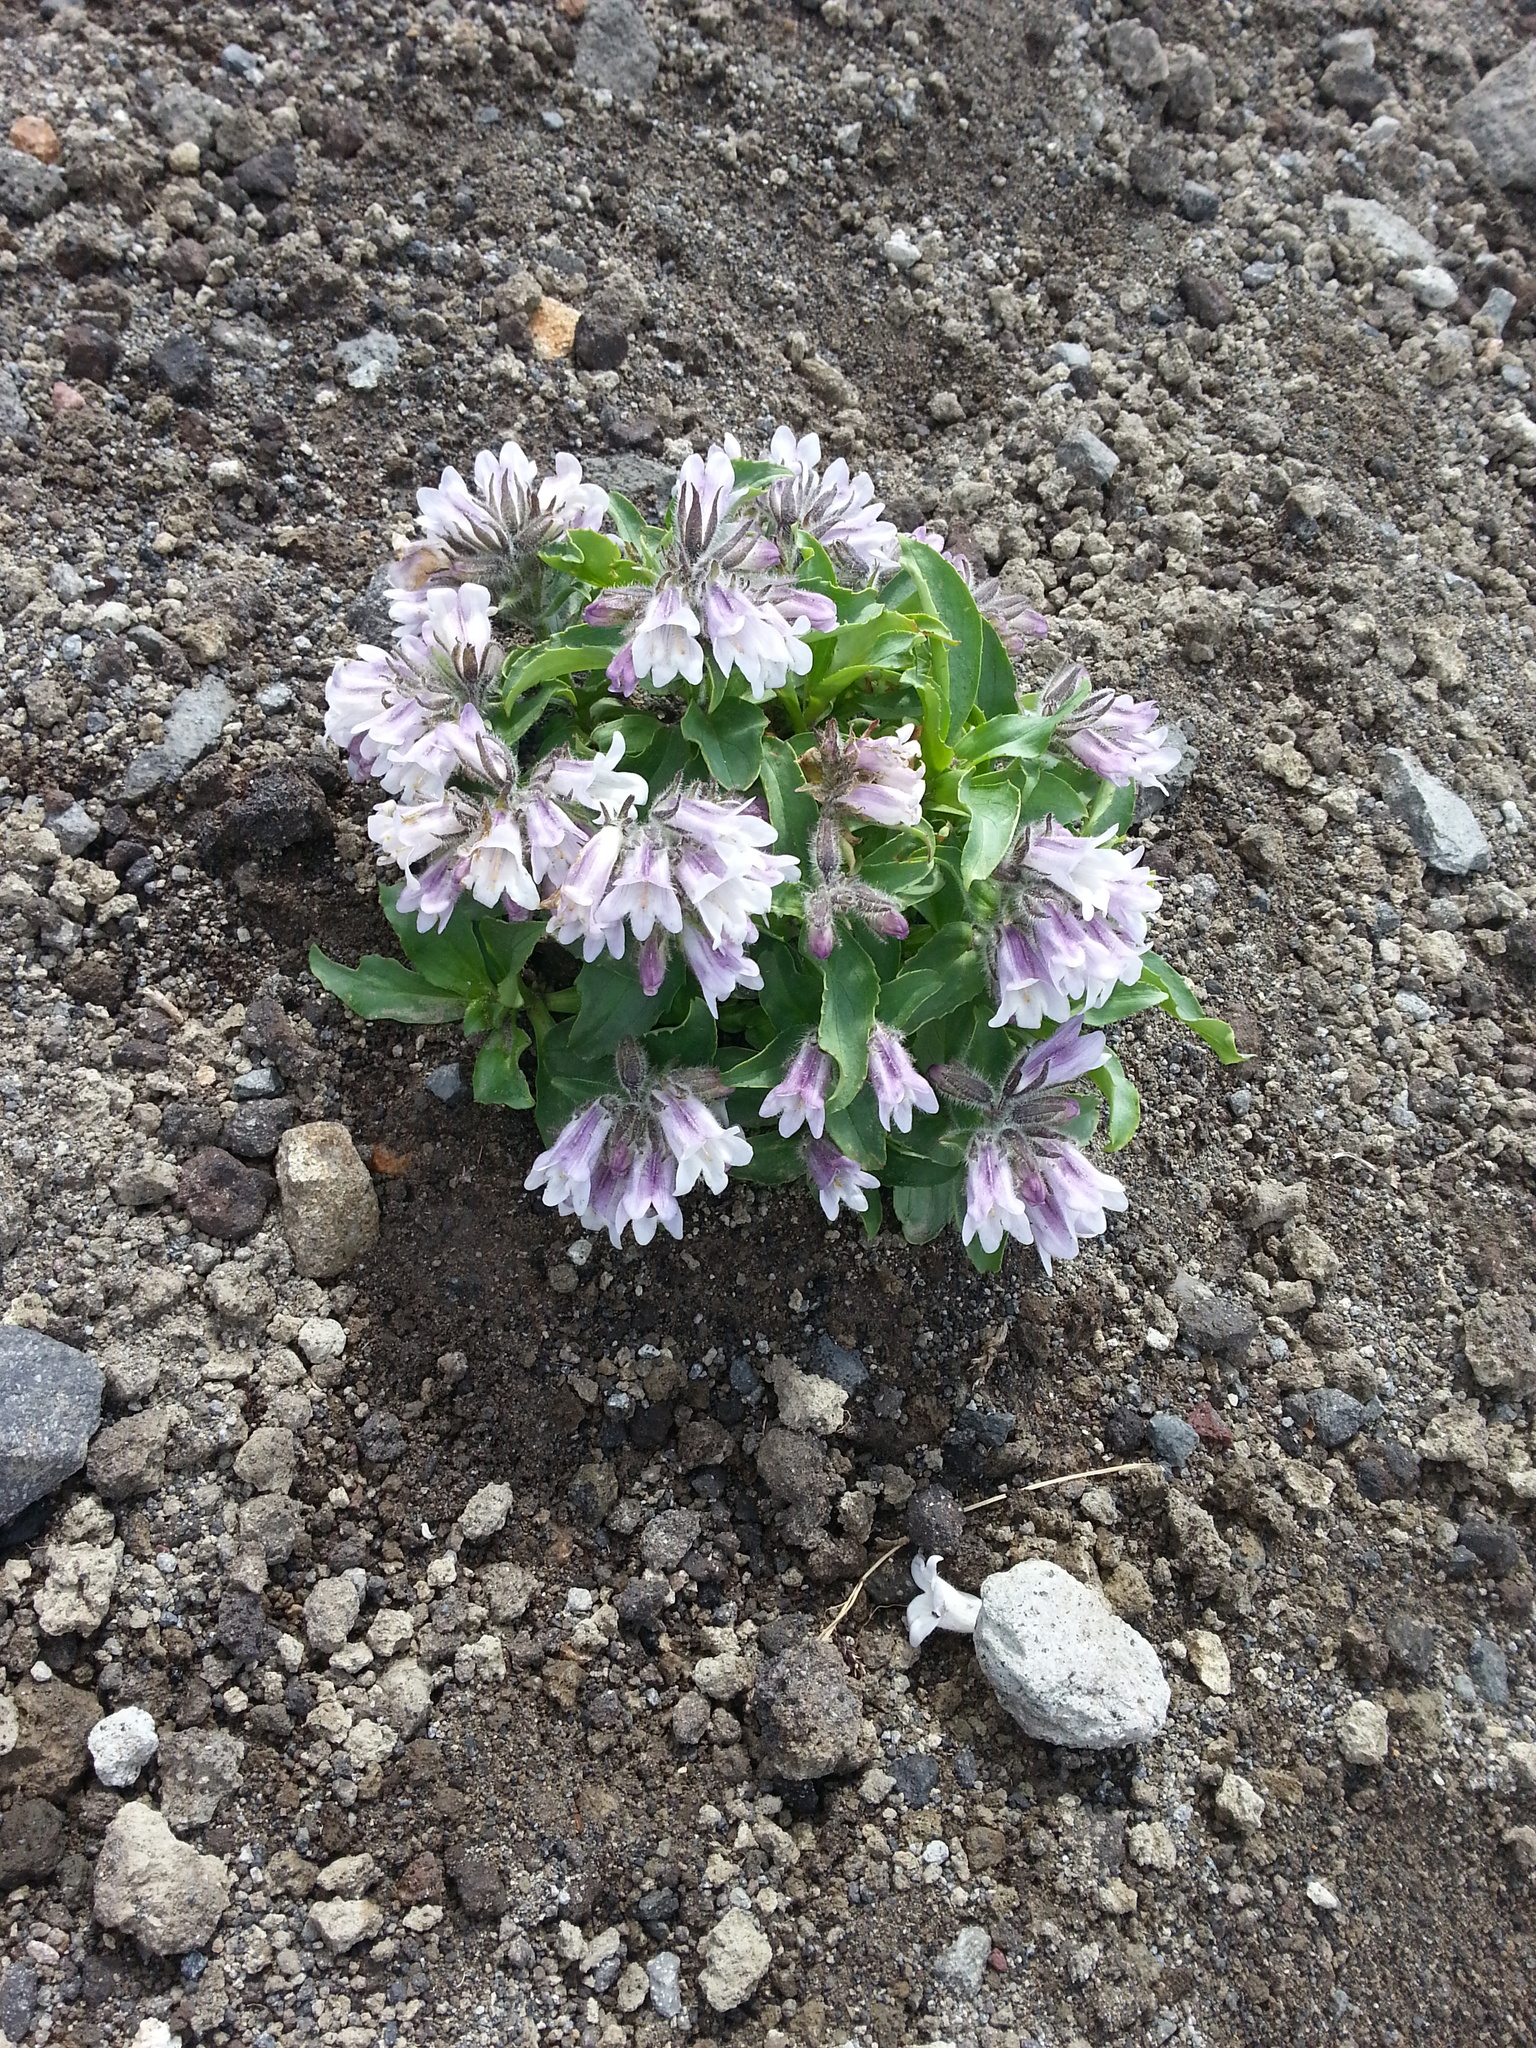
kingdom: Plantae
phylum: Tracheophyta
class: Magnoliopsida
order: Lamiales
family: Plantaginaceae
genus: Pennellianthus
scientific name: Pennellianthus frutescens
